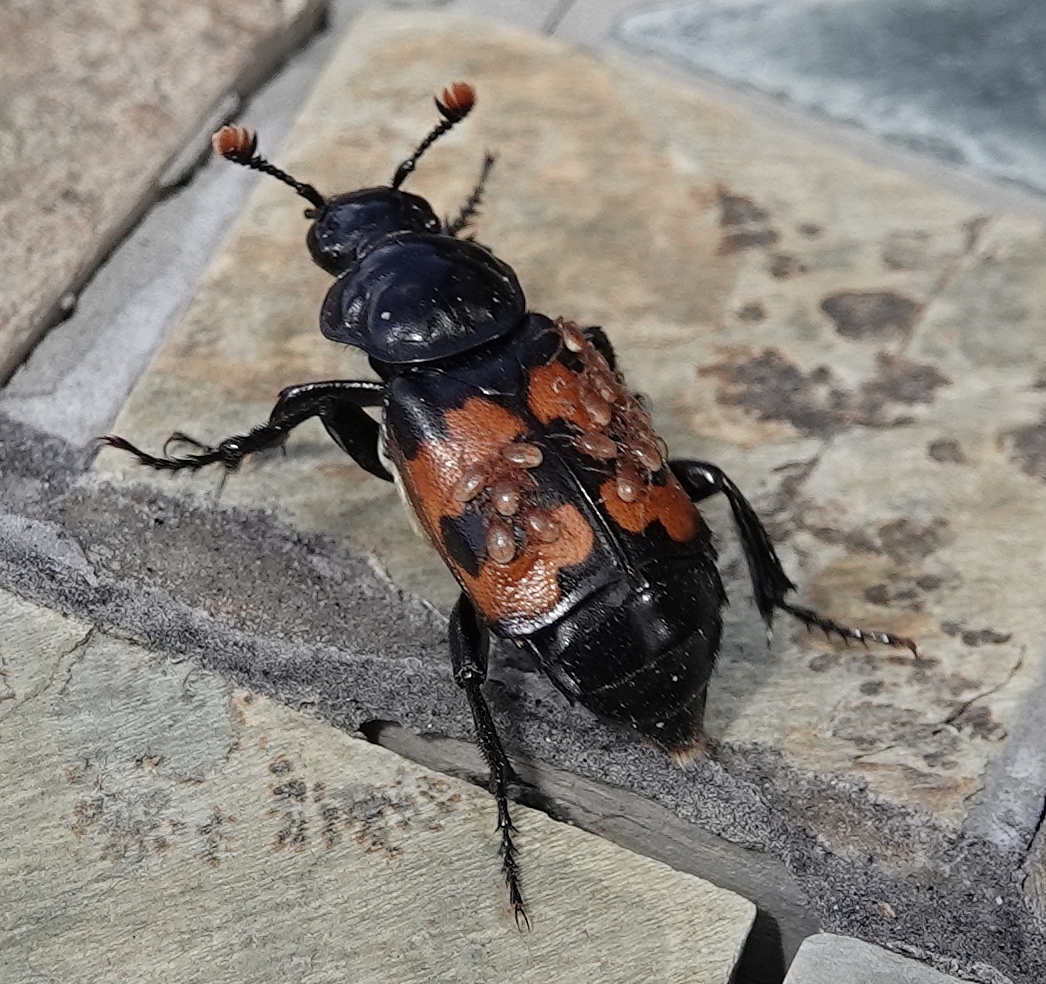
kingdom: Animalia
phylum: Arthropoda
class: Insecta
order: Coleoptera
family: Staphylinidae
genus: Nicrophorus
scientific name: Nicrophorus marginatus
